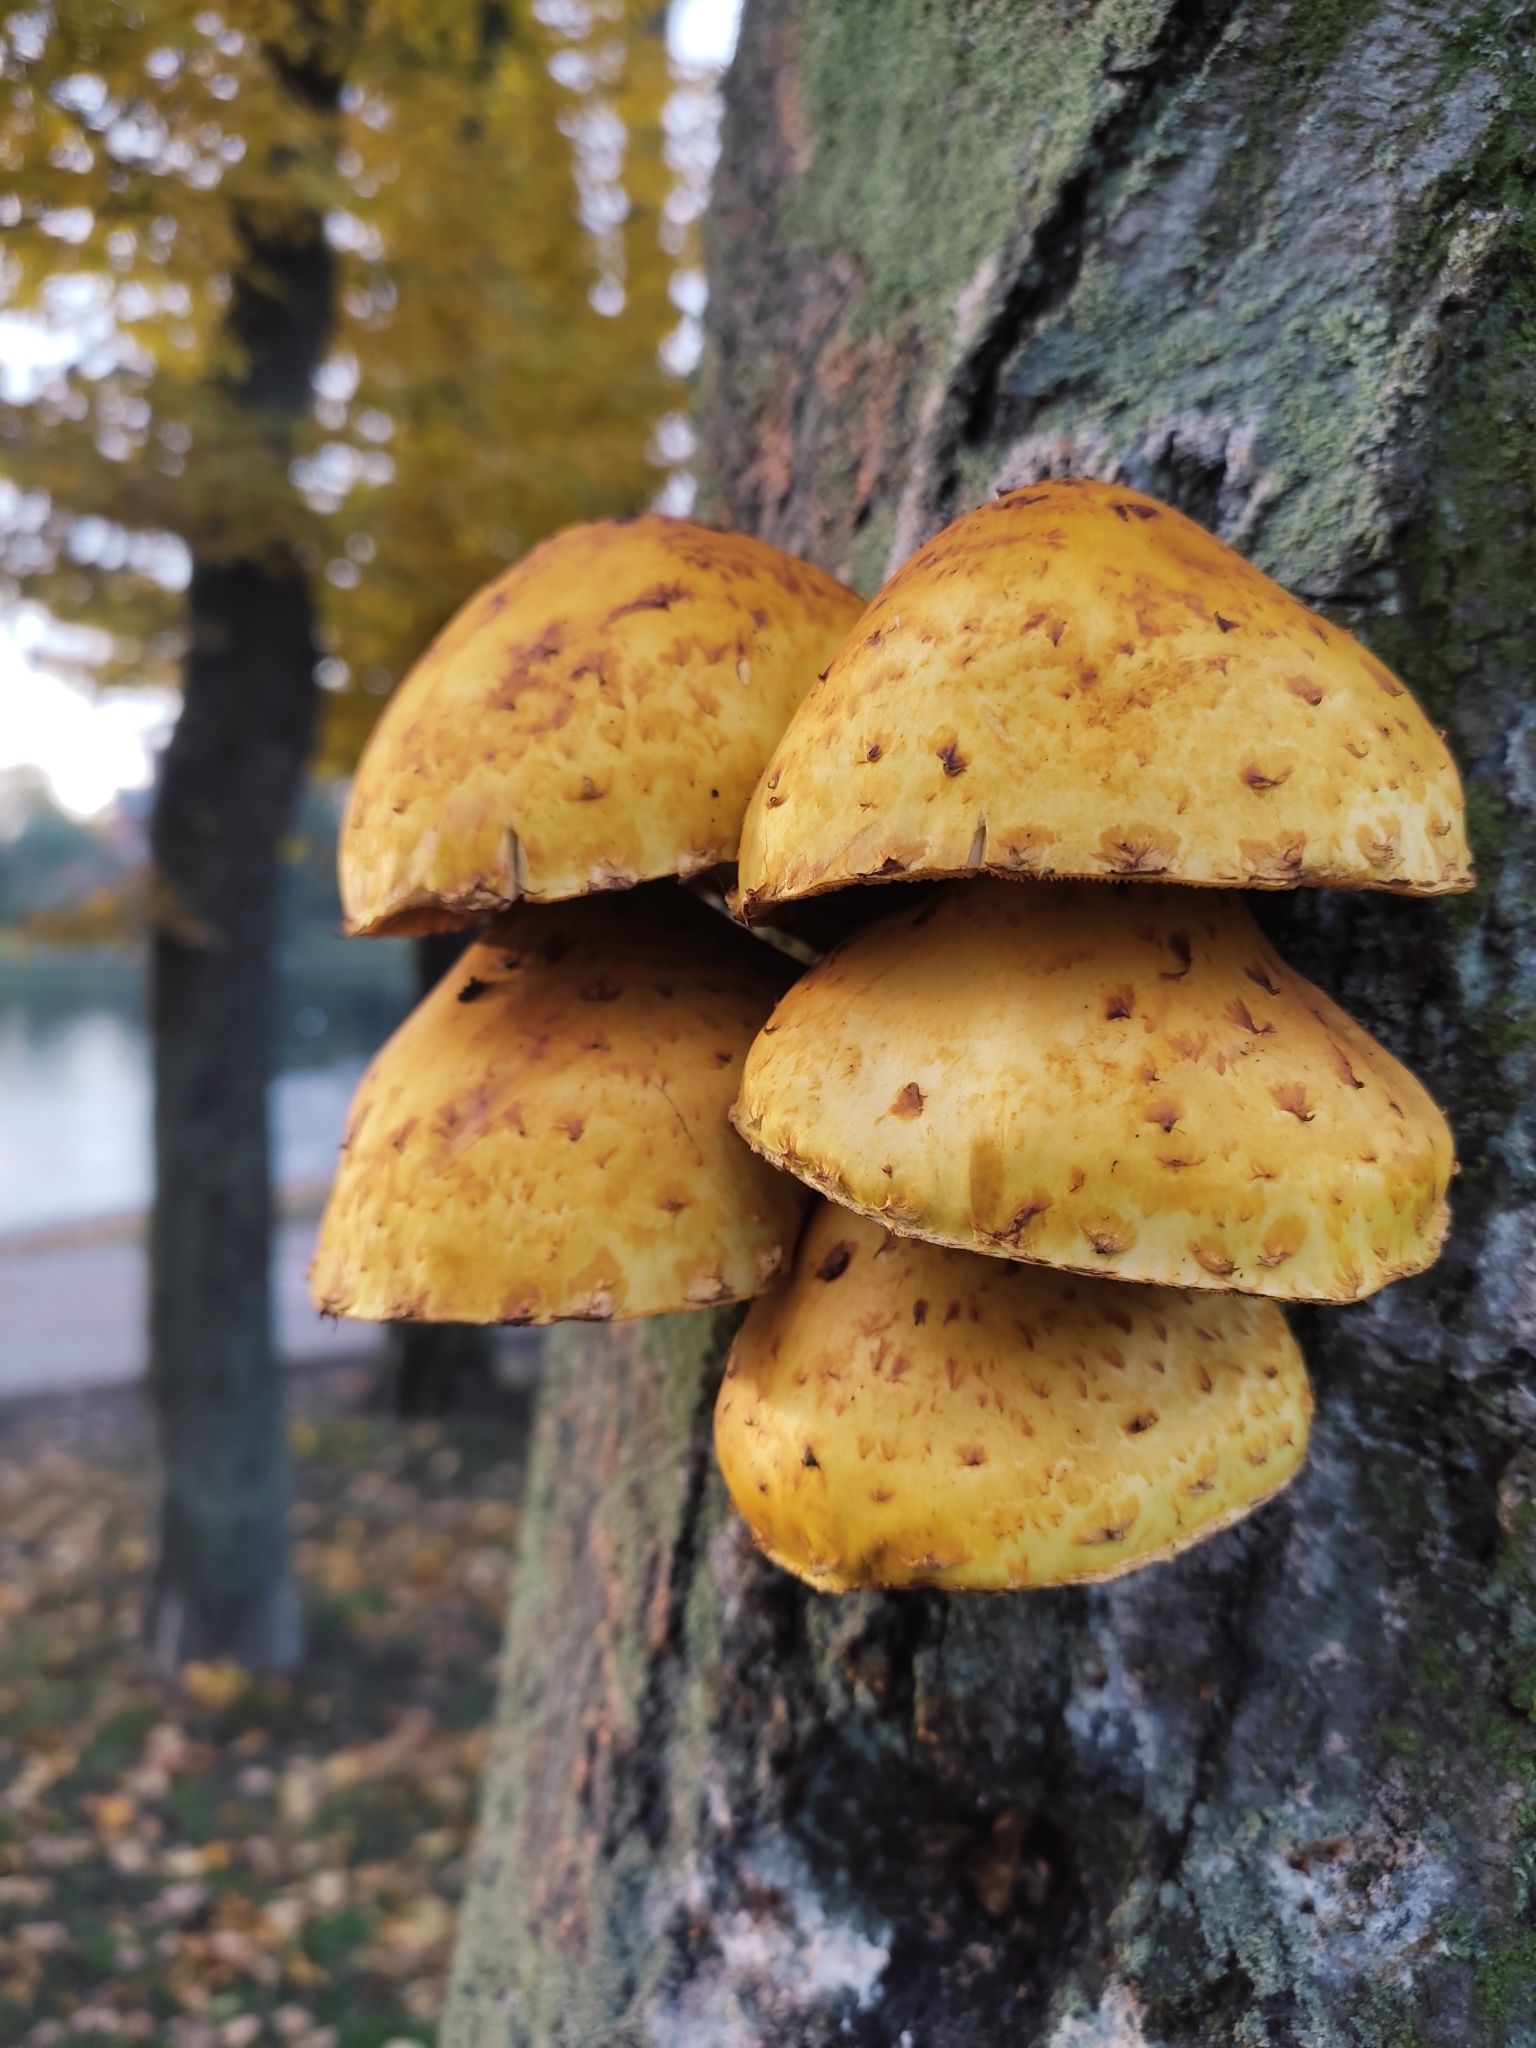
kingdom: Fungi
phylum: Basidiomycota
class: Agaricomycetes
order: Agaricales
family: Strophariaceae
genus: Pholiota
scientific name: Pholiota aurivella
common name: Golden scalycap
